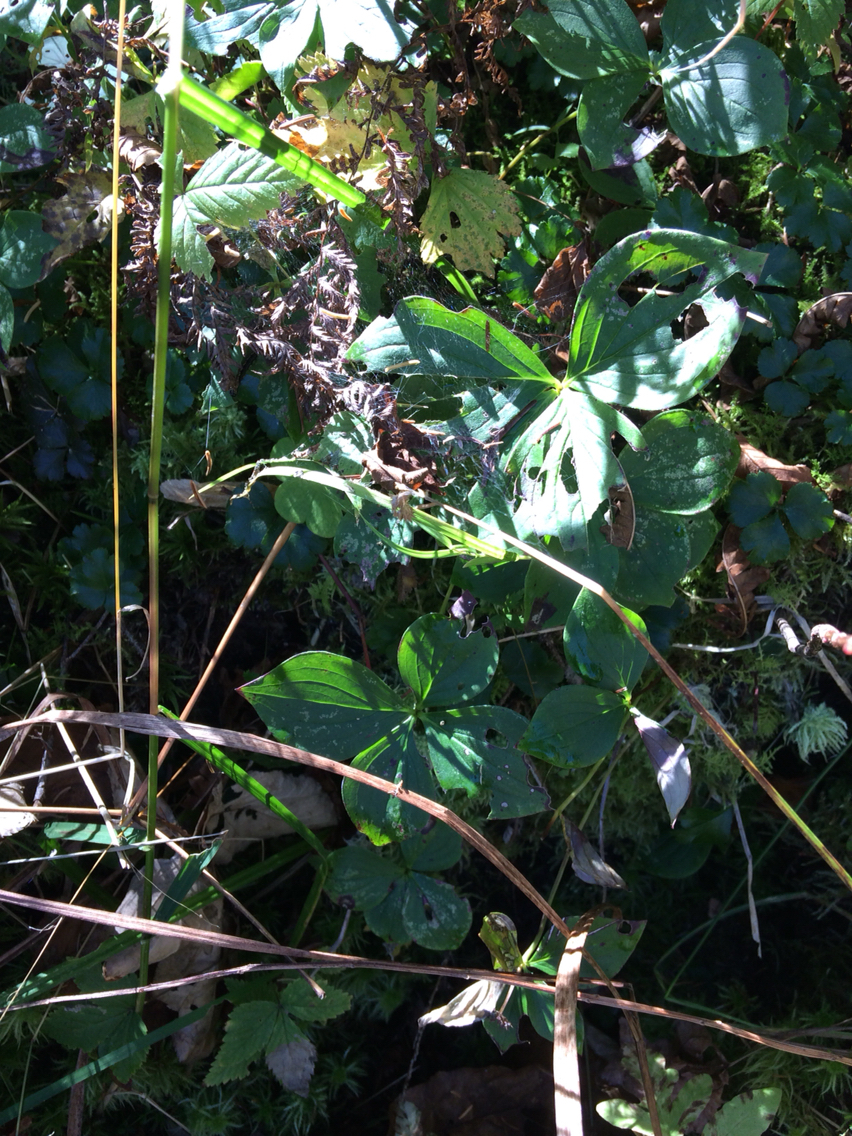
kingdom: Plantae
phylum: Tracheophyta
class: Magnoliopsida
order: Cornales
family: Cornaceae
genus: Cornus
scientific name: Cornus canadensis
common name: Creeping dogwood
